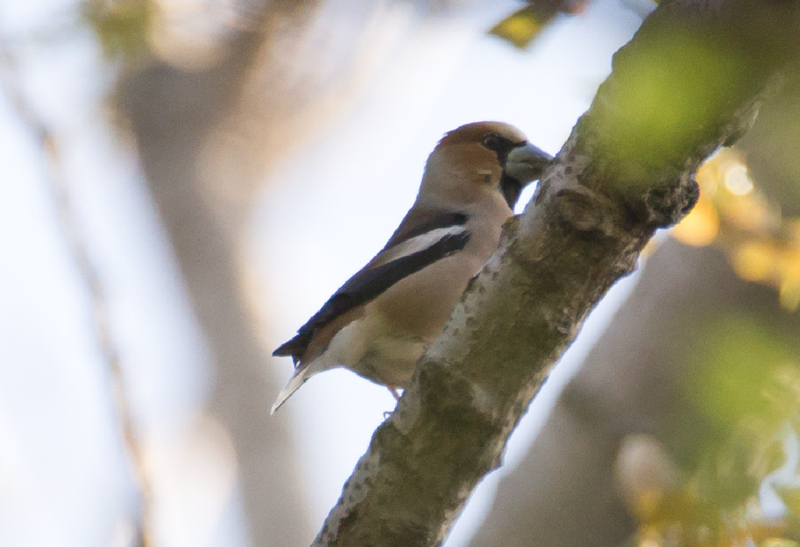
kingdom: Animalia
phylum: Chordata
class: Aves
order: Passeriformes
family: Fringillidae
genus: Coccothraustes
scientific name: Coccothraustes coccothraustes
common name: Hawfinch
